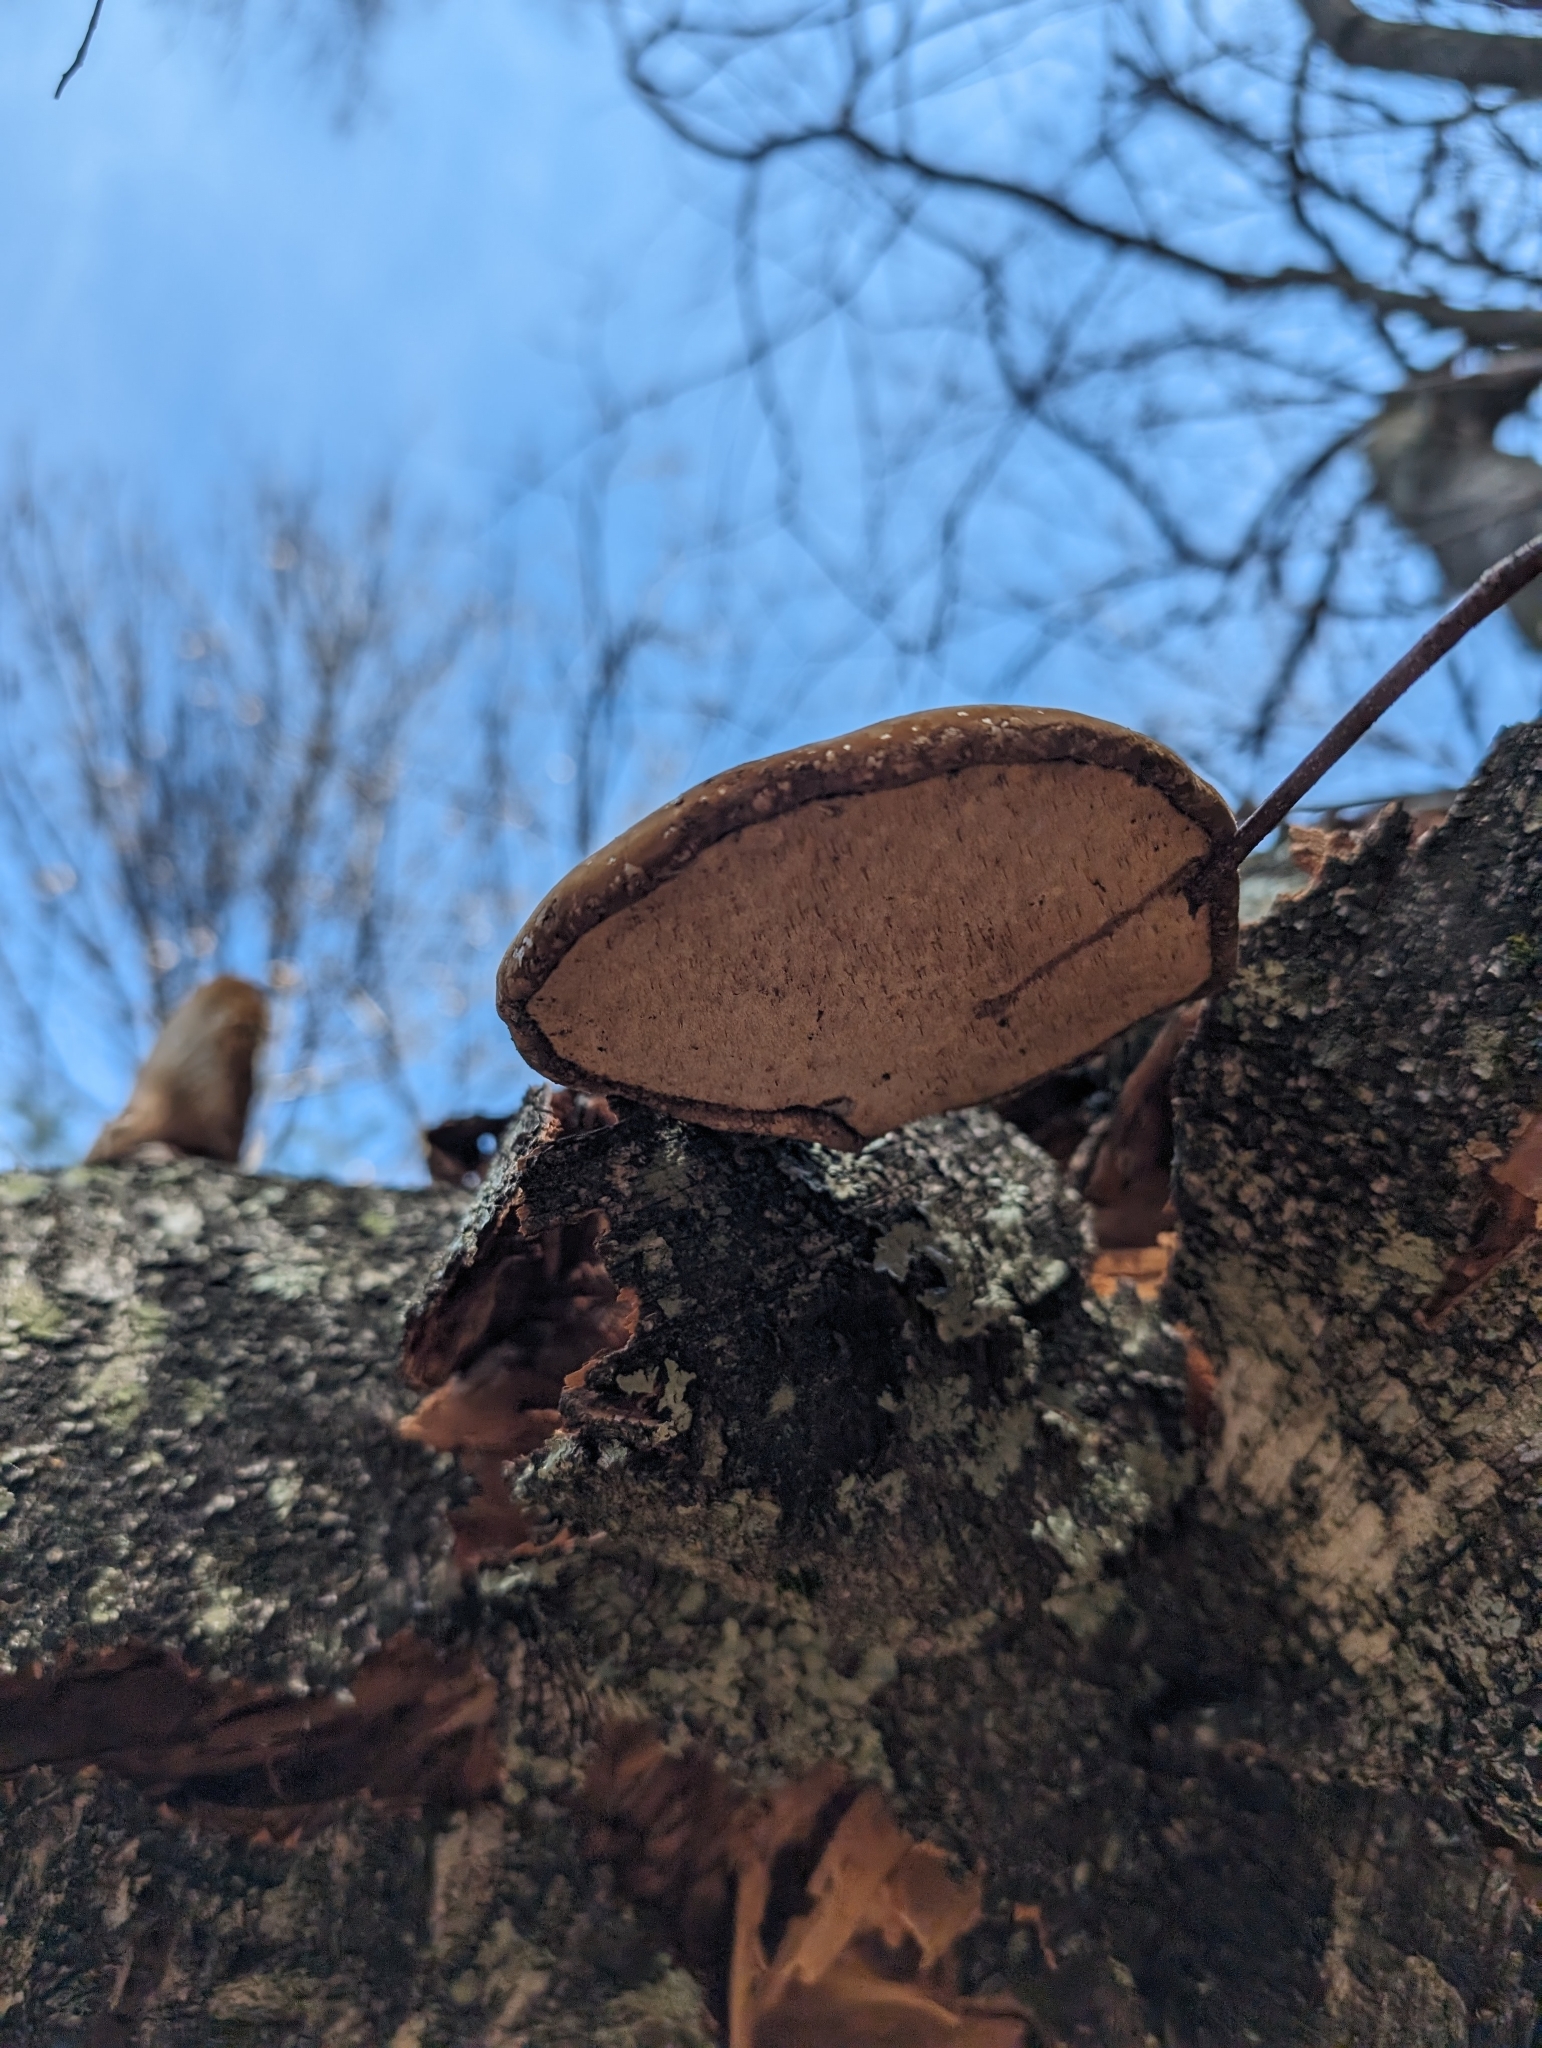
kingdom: Fungi
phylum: Basidiomycota
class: Agaricomycetes
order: Polyporales
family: Fomitopsidaceae
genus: Fomitopsis
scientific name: Fomitopsis betulina
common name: Birch polypore
